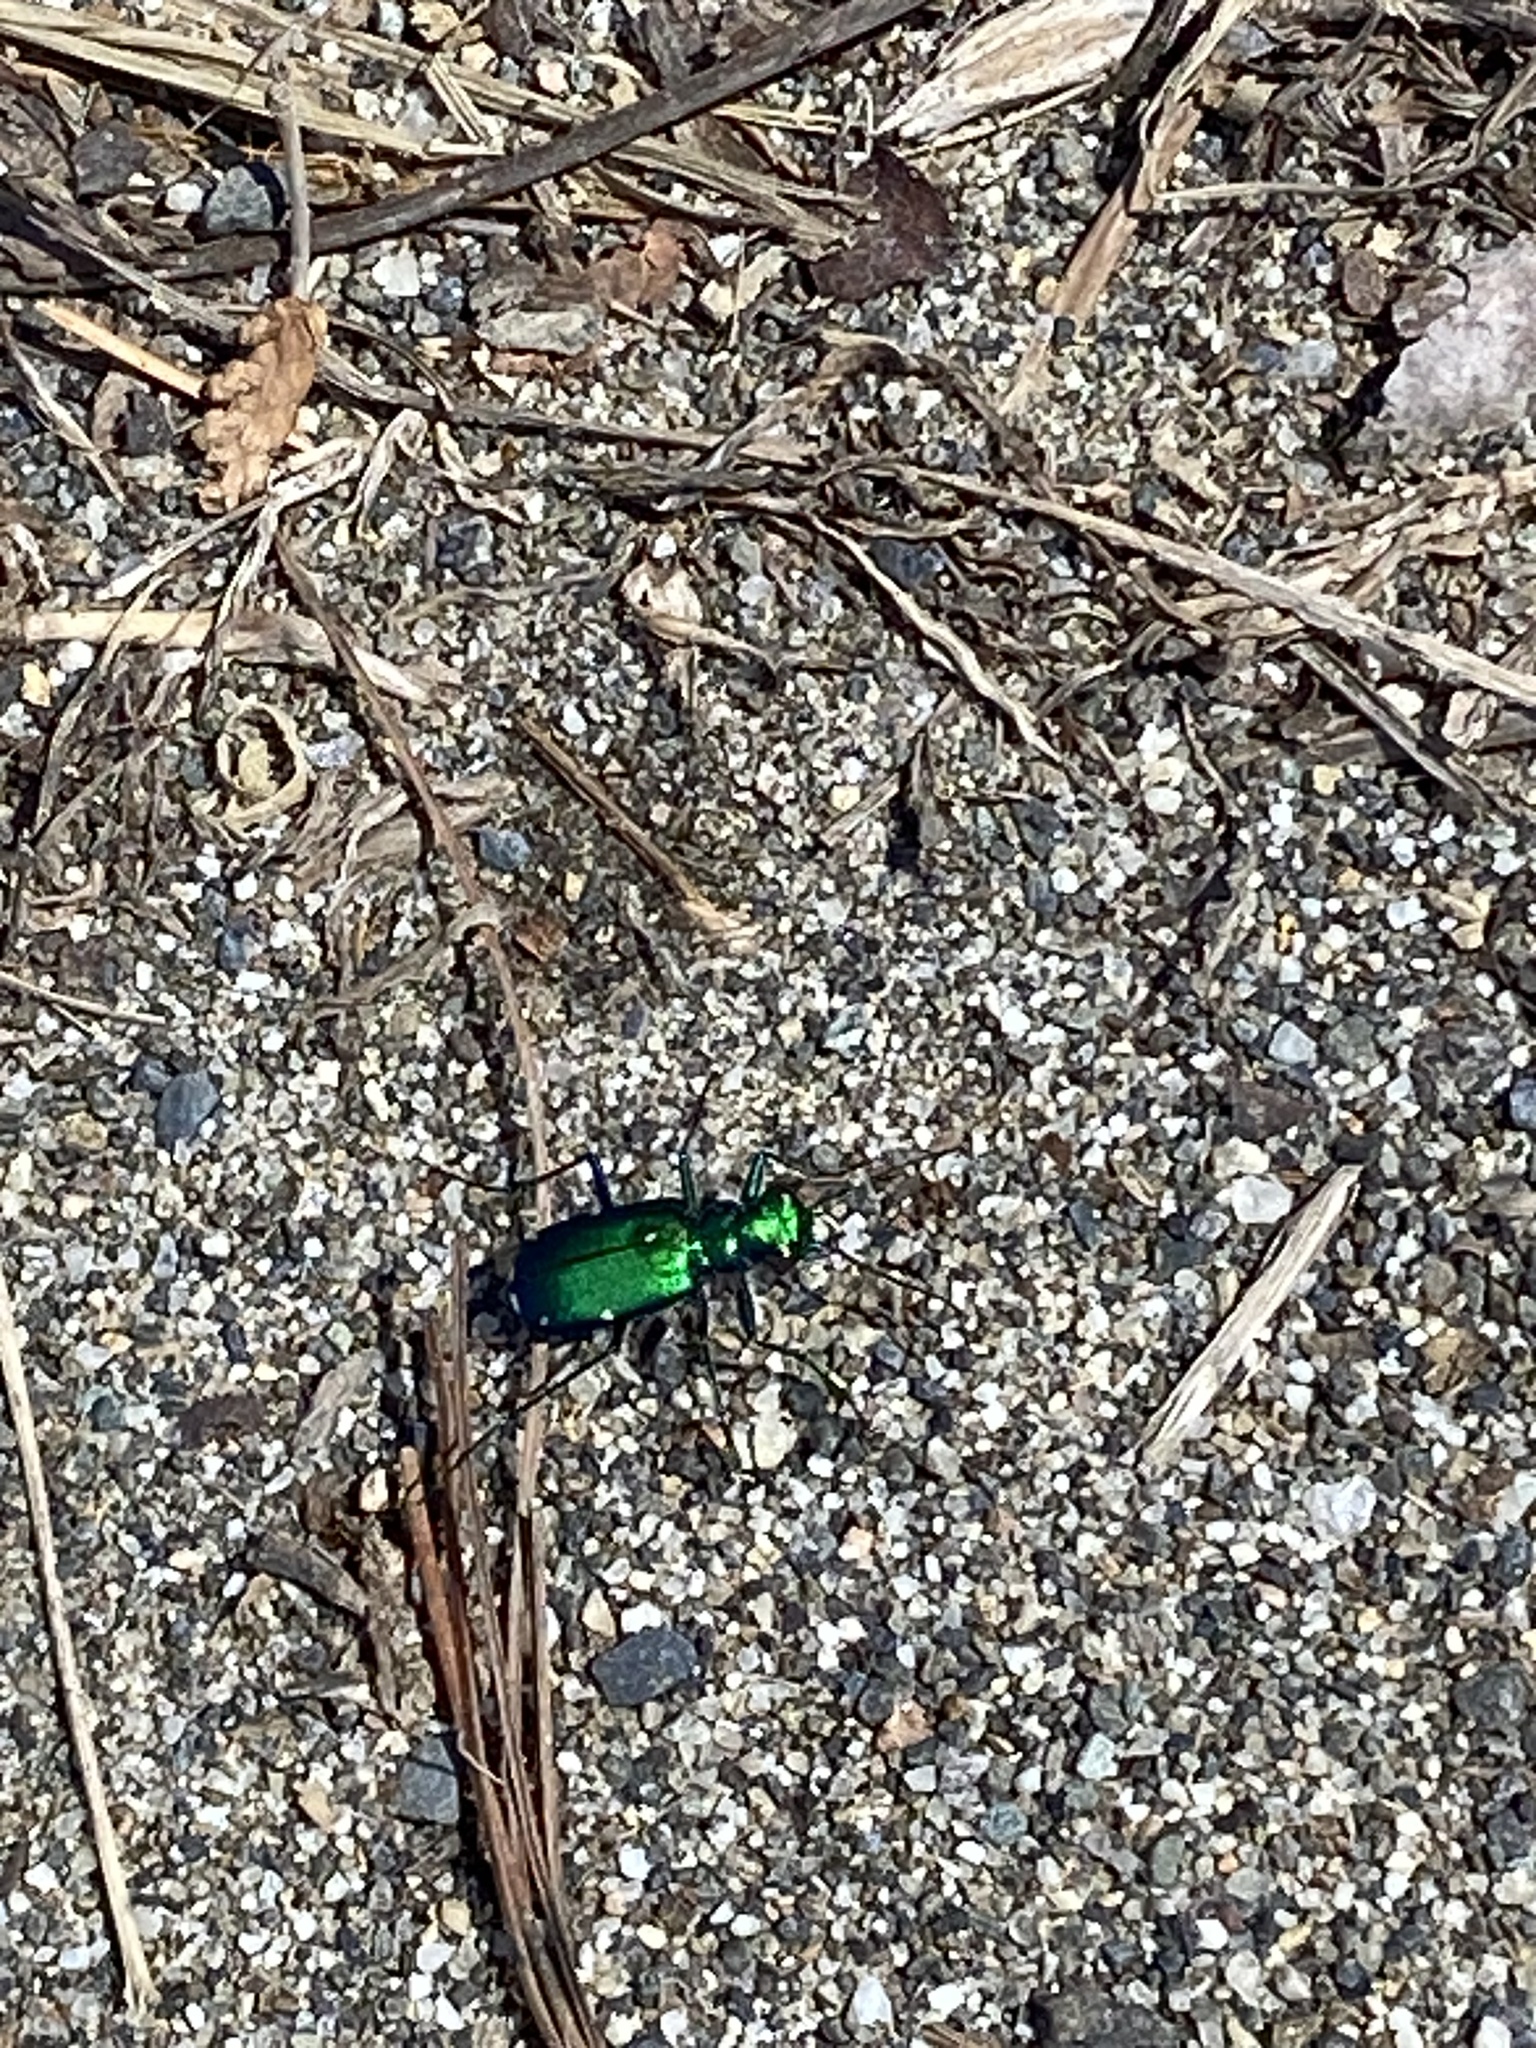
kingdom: Animalia
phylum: Arthropoda
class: Insecta
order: Coleoptera
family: Carabidae
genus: Cicindela
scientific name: Cicindela sexguttata
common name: Six-spotted tiger beetle
